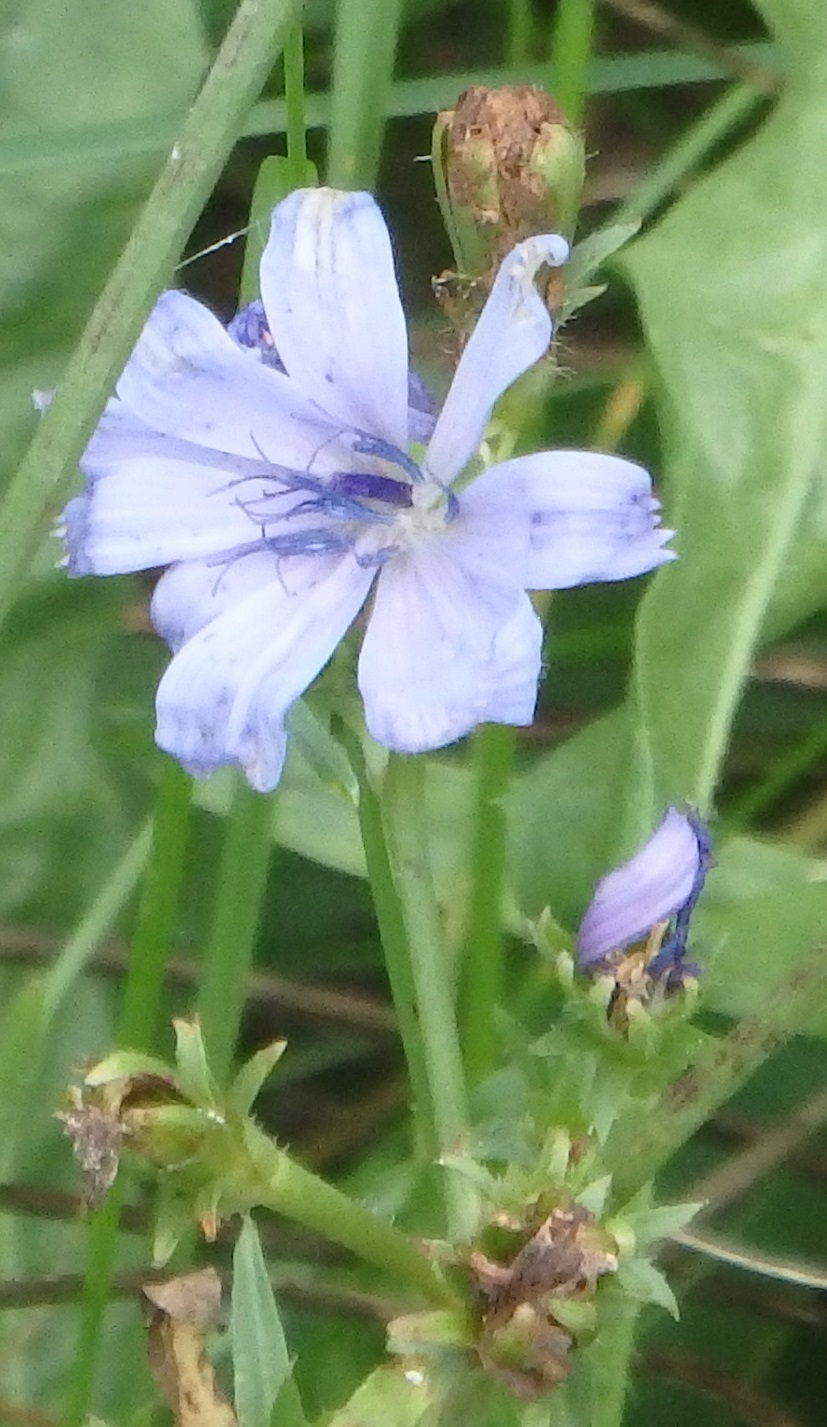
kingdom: Plantae
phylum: Tracheophyta
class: Magnoliopsida
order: Asterales
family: Asteraceae
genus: Cichorium
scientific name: Cichorium intybus
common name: Chicory
